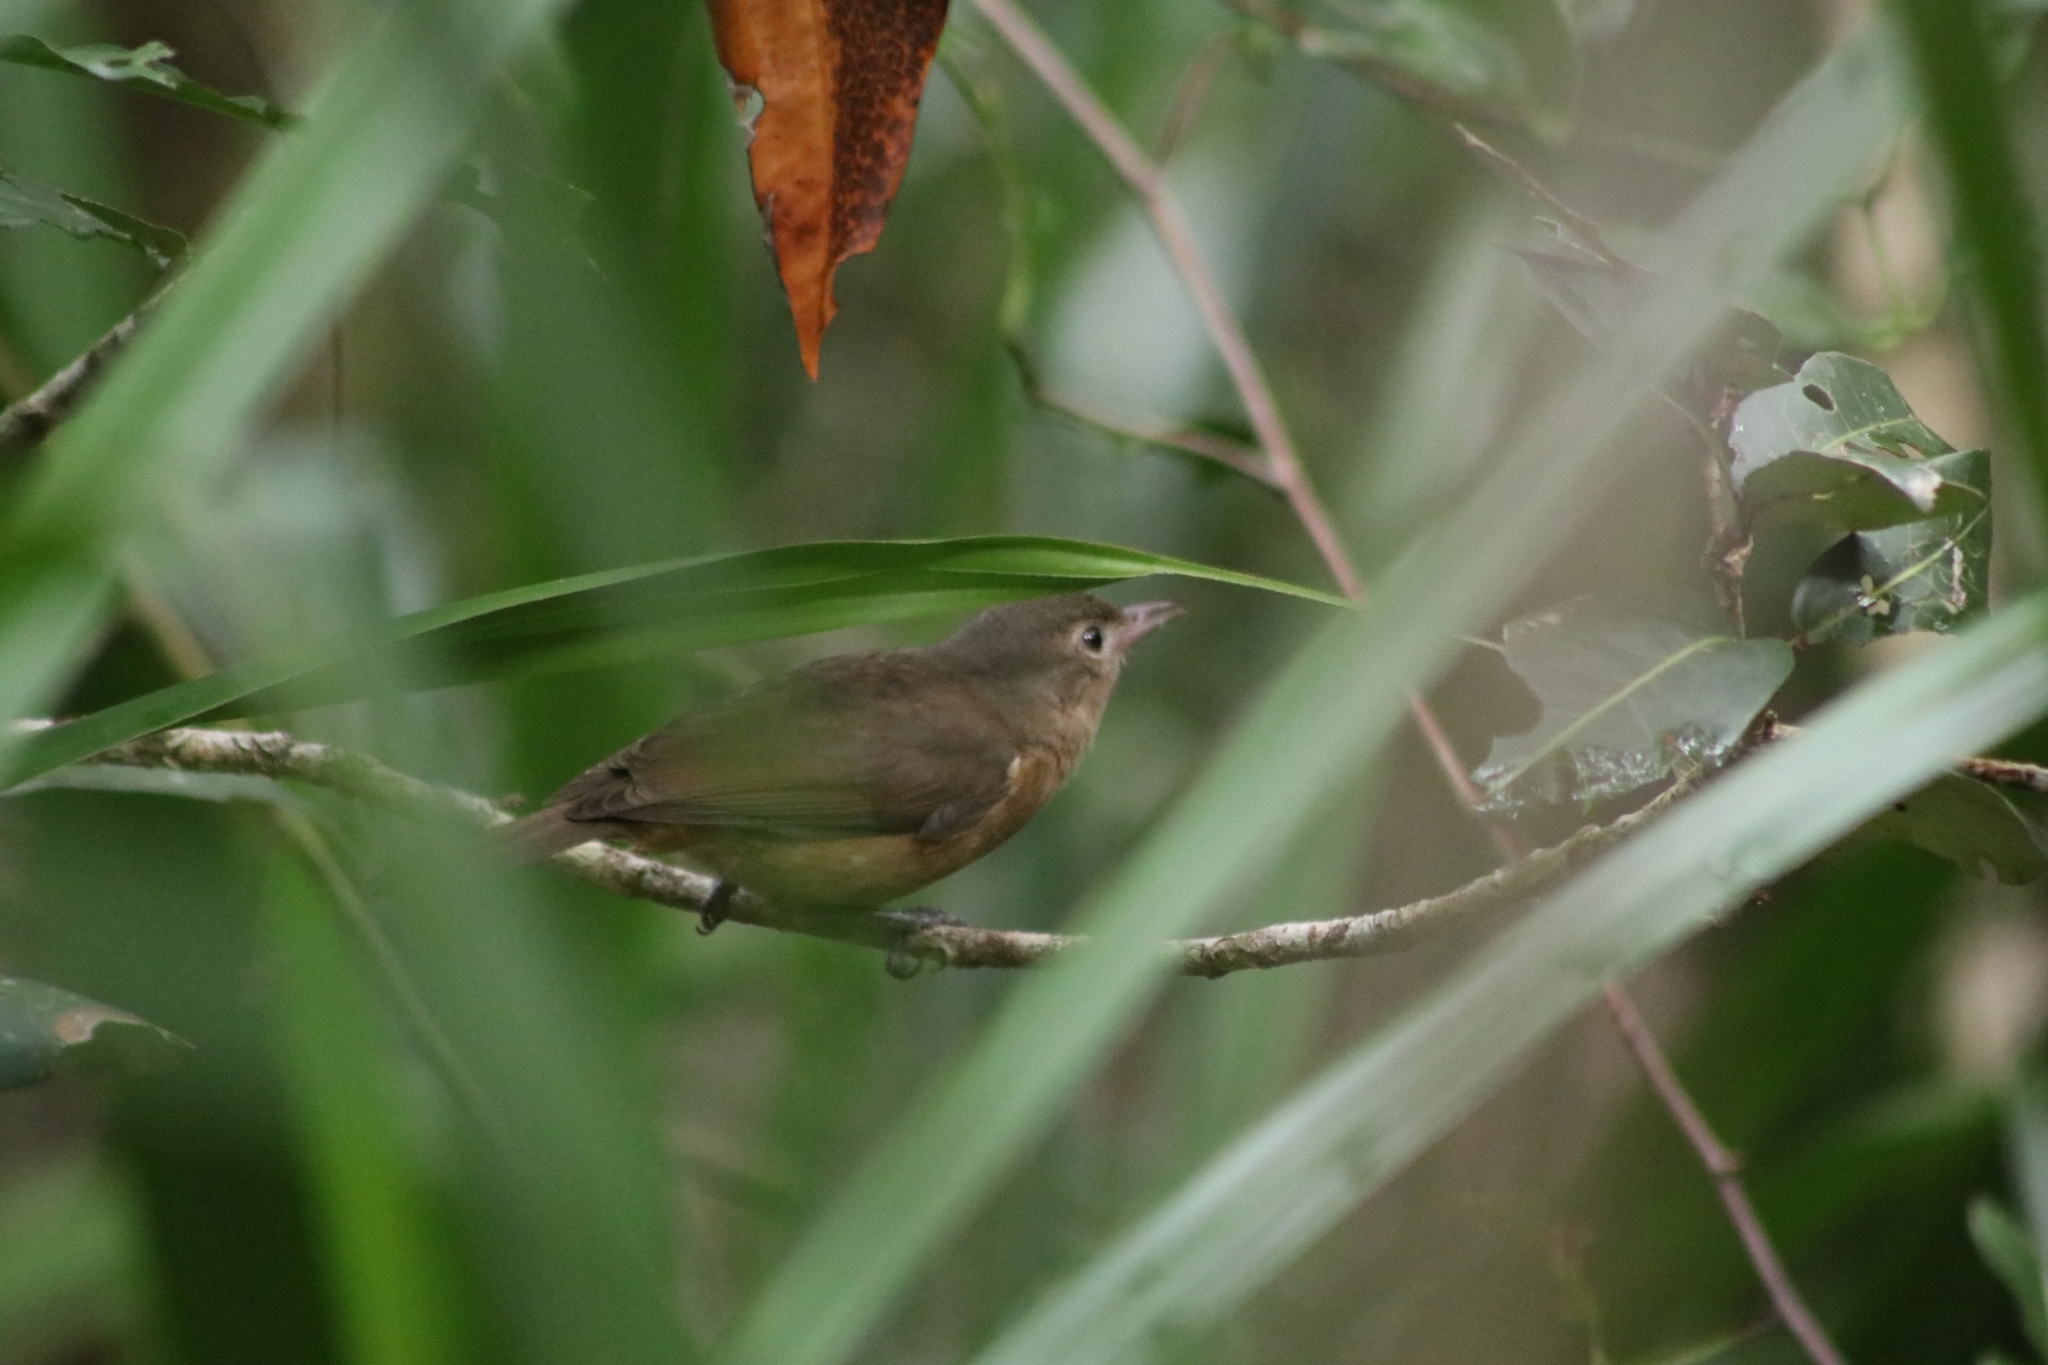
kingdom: Animalia
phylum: Chordata
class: Aves
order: Passeriformes
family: Pachycephalidae
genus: Colluricincla
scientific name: Colluricincla rufogaster
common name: Rufous shrikethrush
